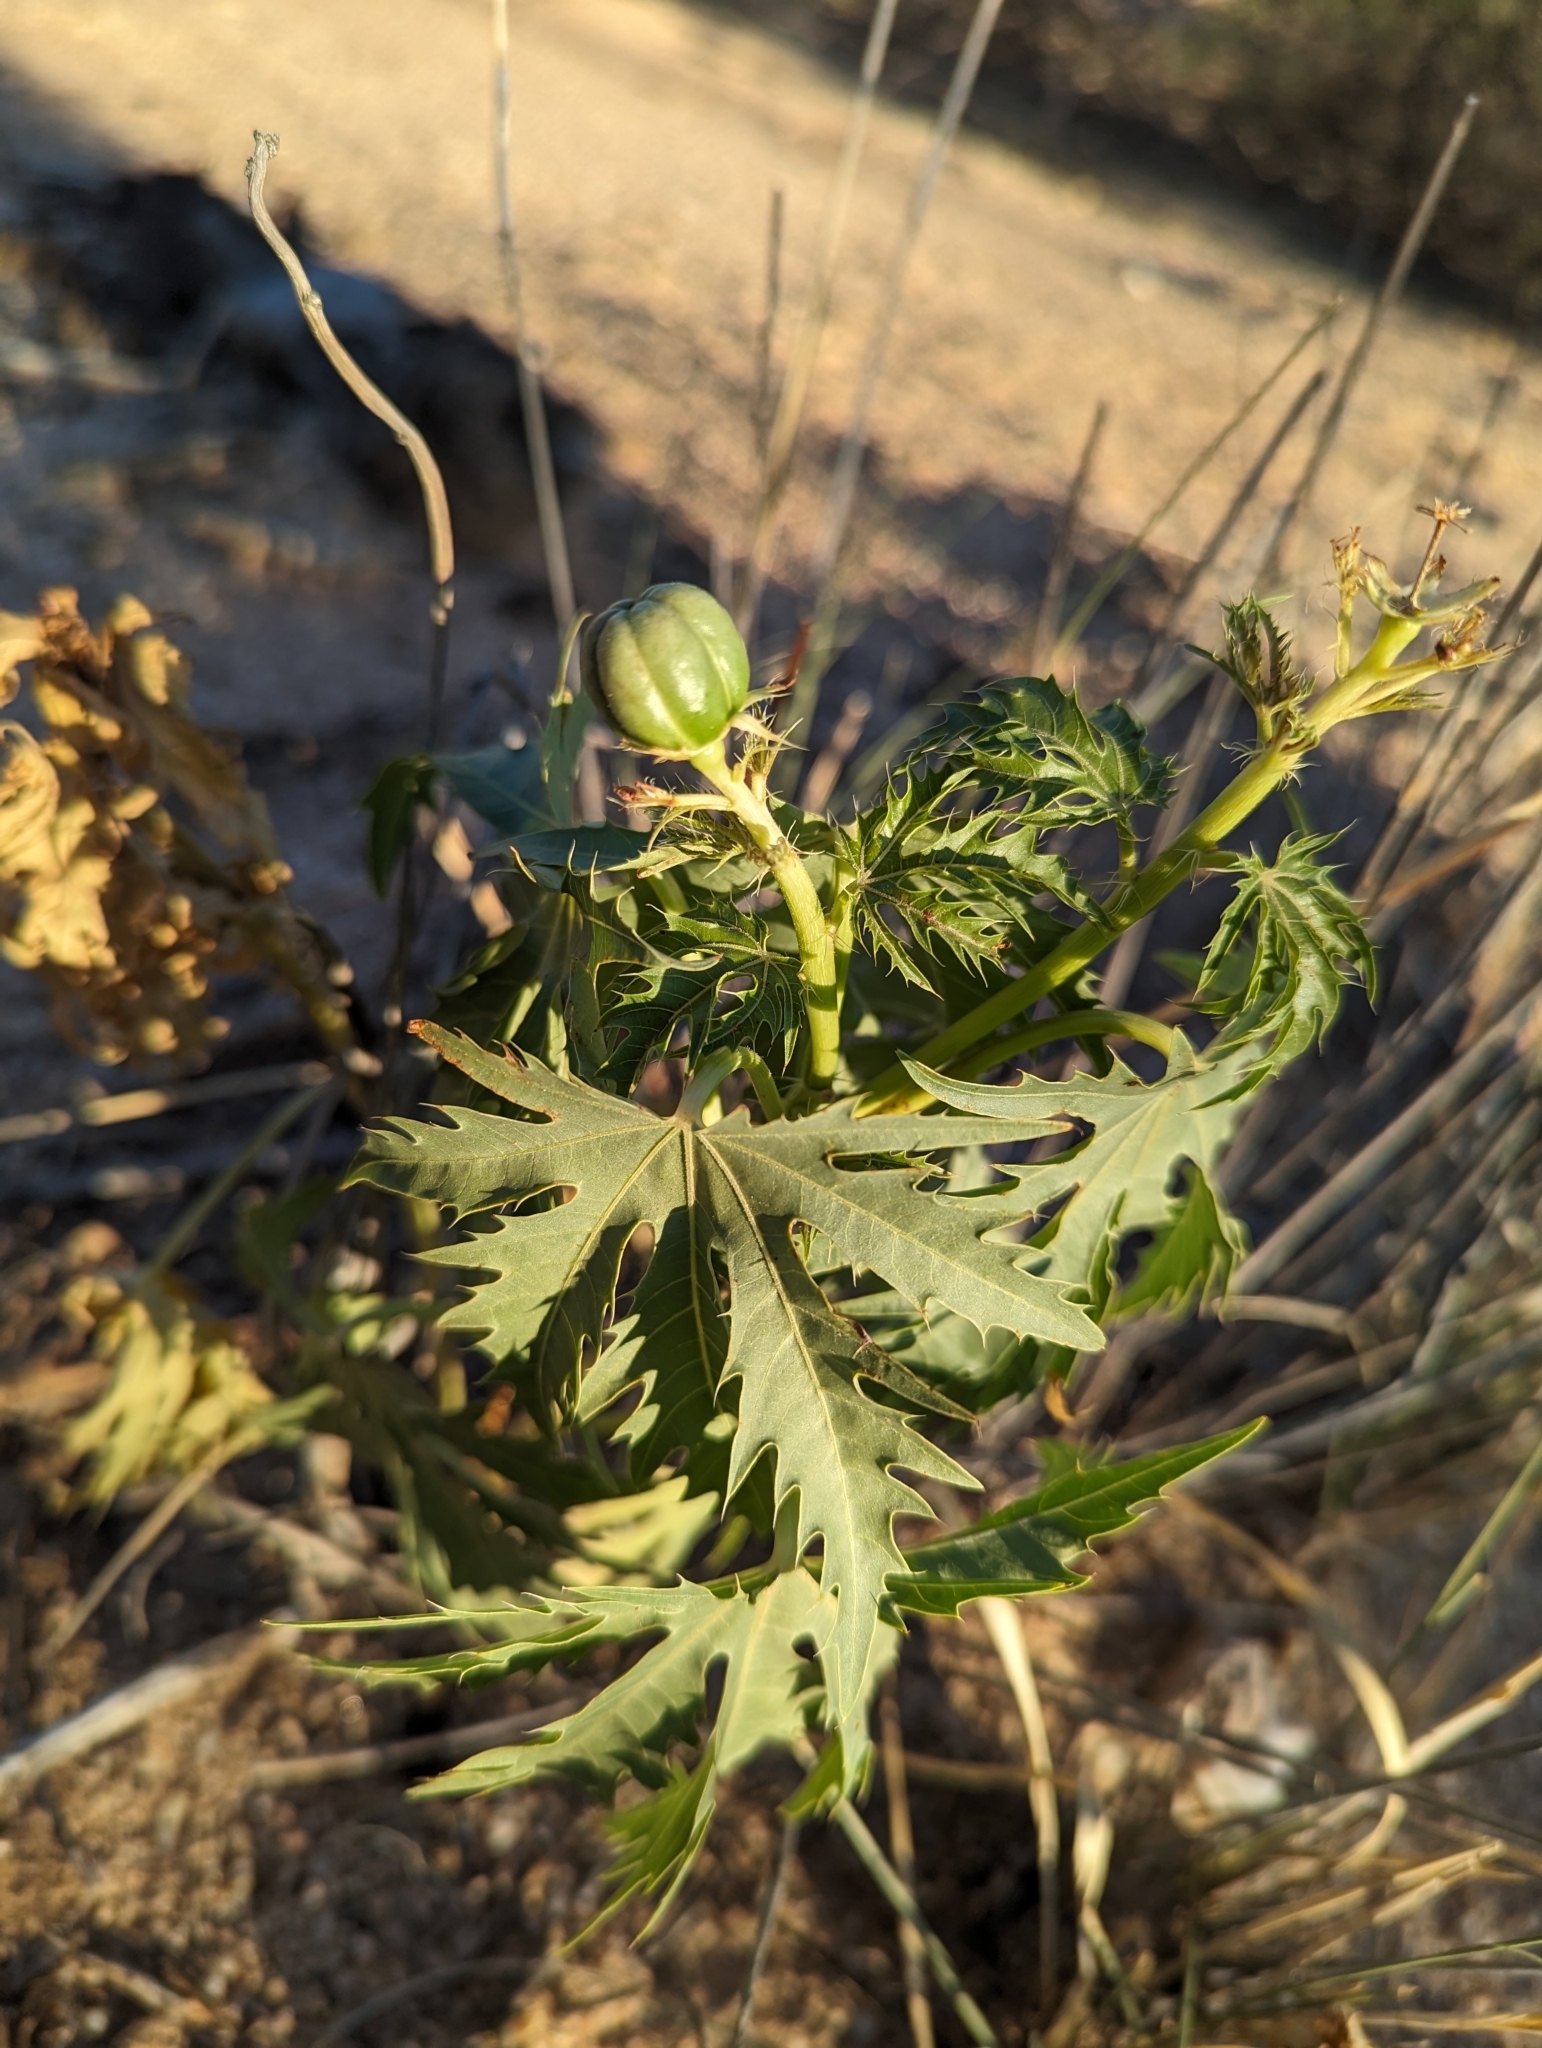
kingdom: Plantae
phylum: Tracheophyta
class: Magnoliopsida
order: Malpighiales
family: Euphorbiaceae
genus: Jatropha
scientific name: Jatropha macrorhiza
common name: Ragged nettlespurge
